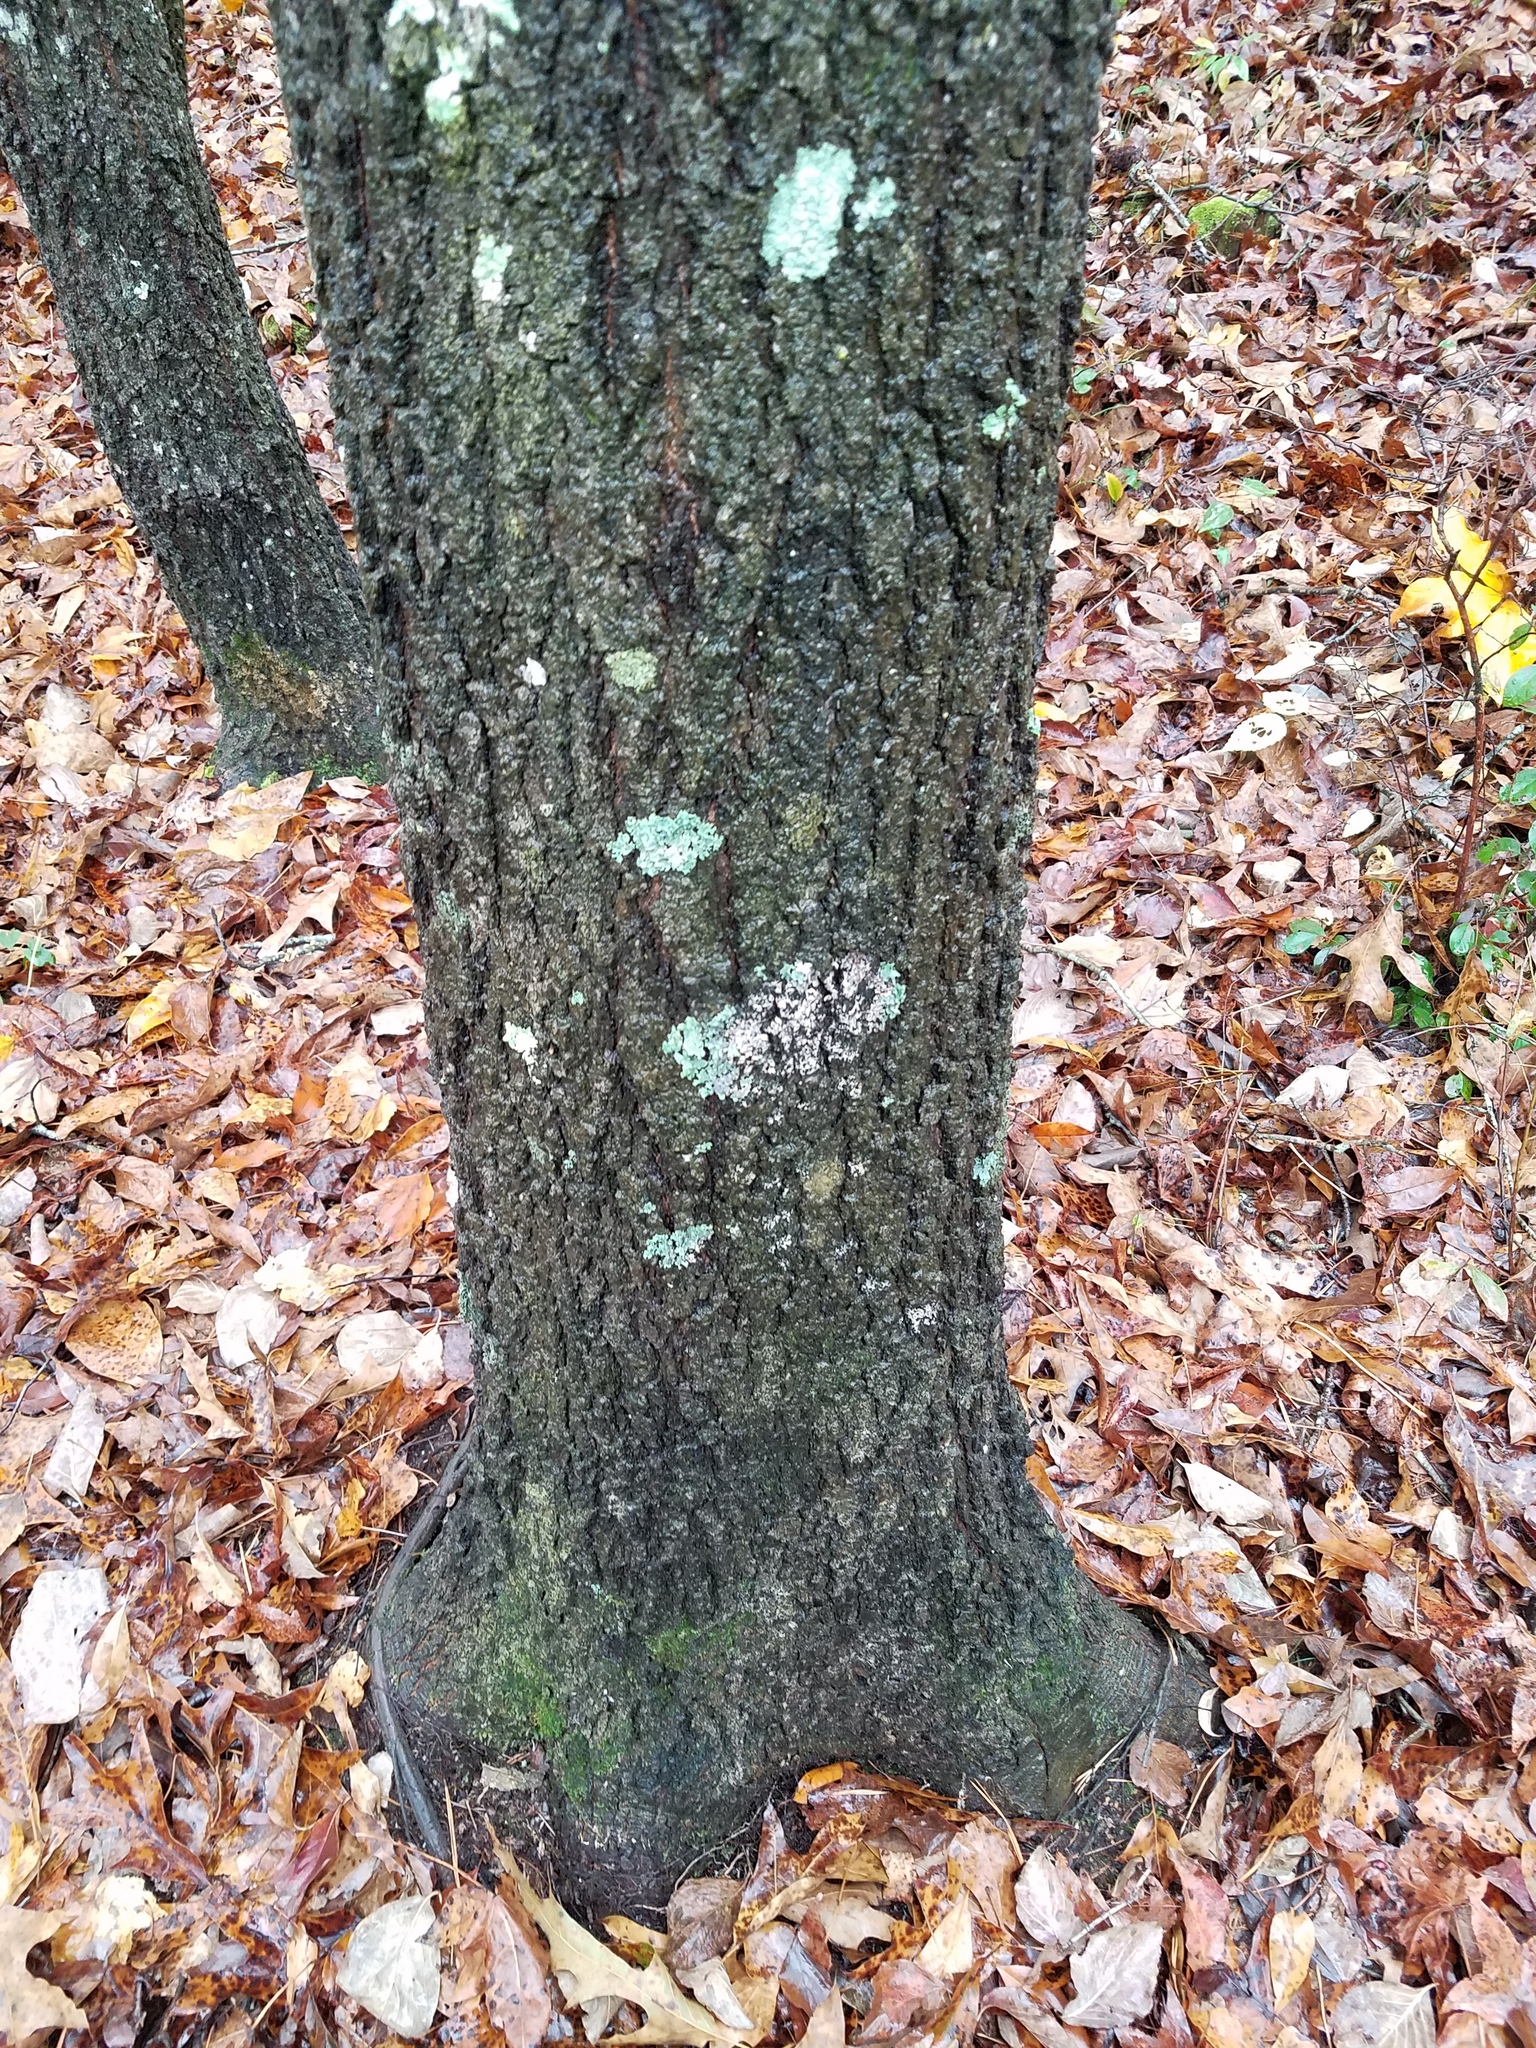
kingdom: Plantae
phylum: Tracheophyta
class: Magnoliopsida
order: Fagales
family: Fagaceae
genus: Quercus
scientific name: Quercus falcata
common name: Southern red oak
